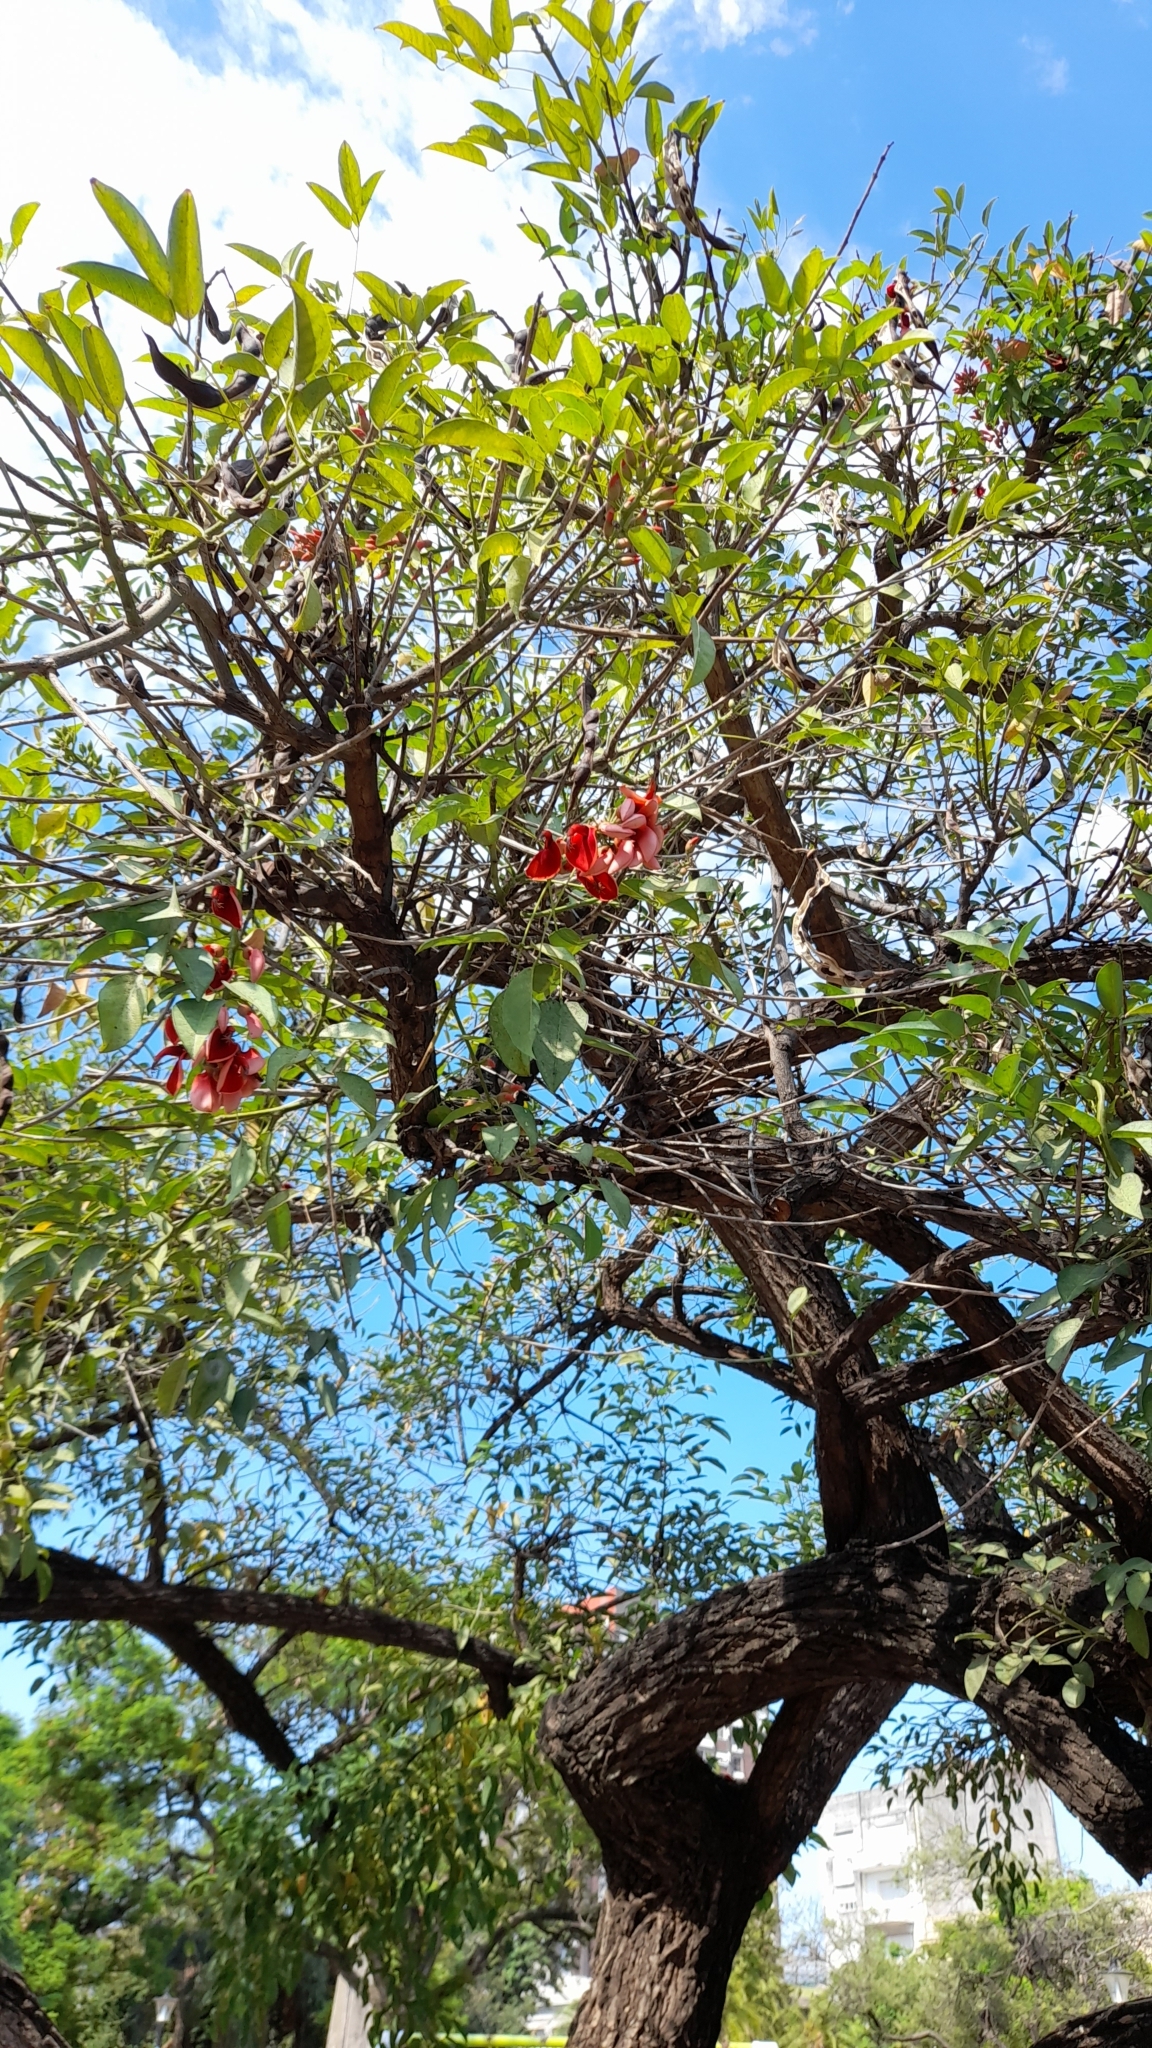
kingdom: Plantae
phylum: Tracheophyta
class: Magnoliopsida
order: Fabales
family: Fabaceae
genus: Erythrina
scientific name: Erythrina crista-galli
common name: Cockspur coral tree
